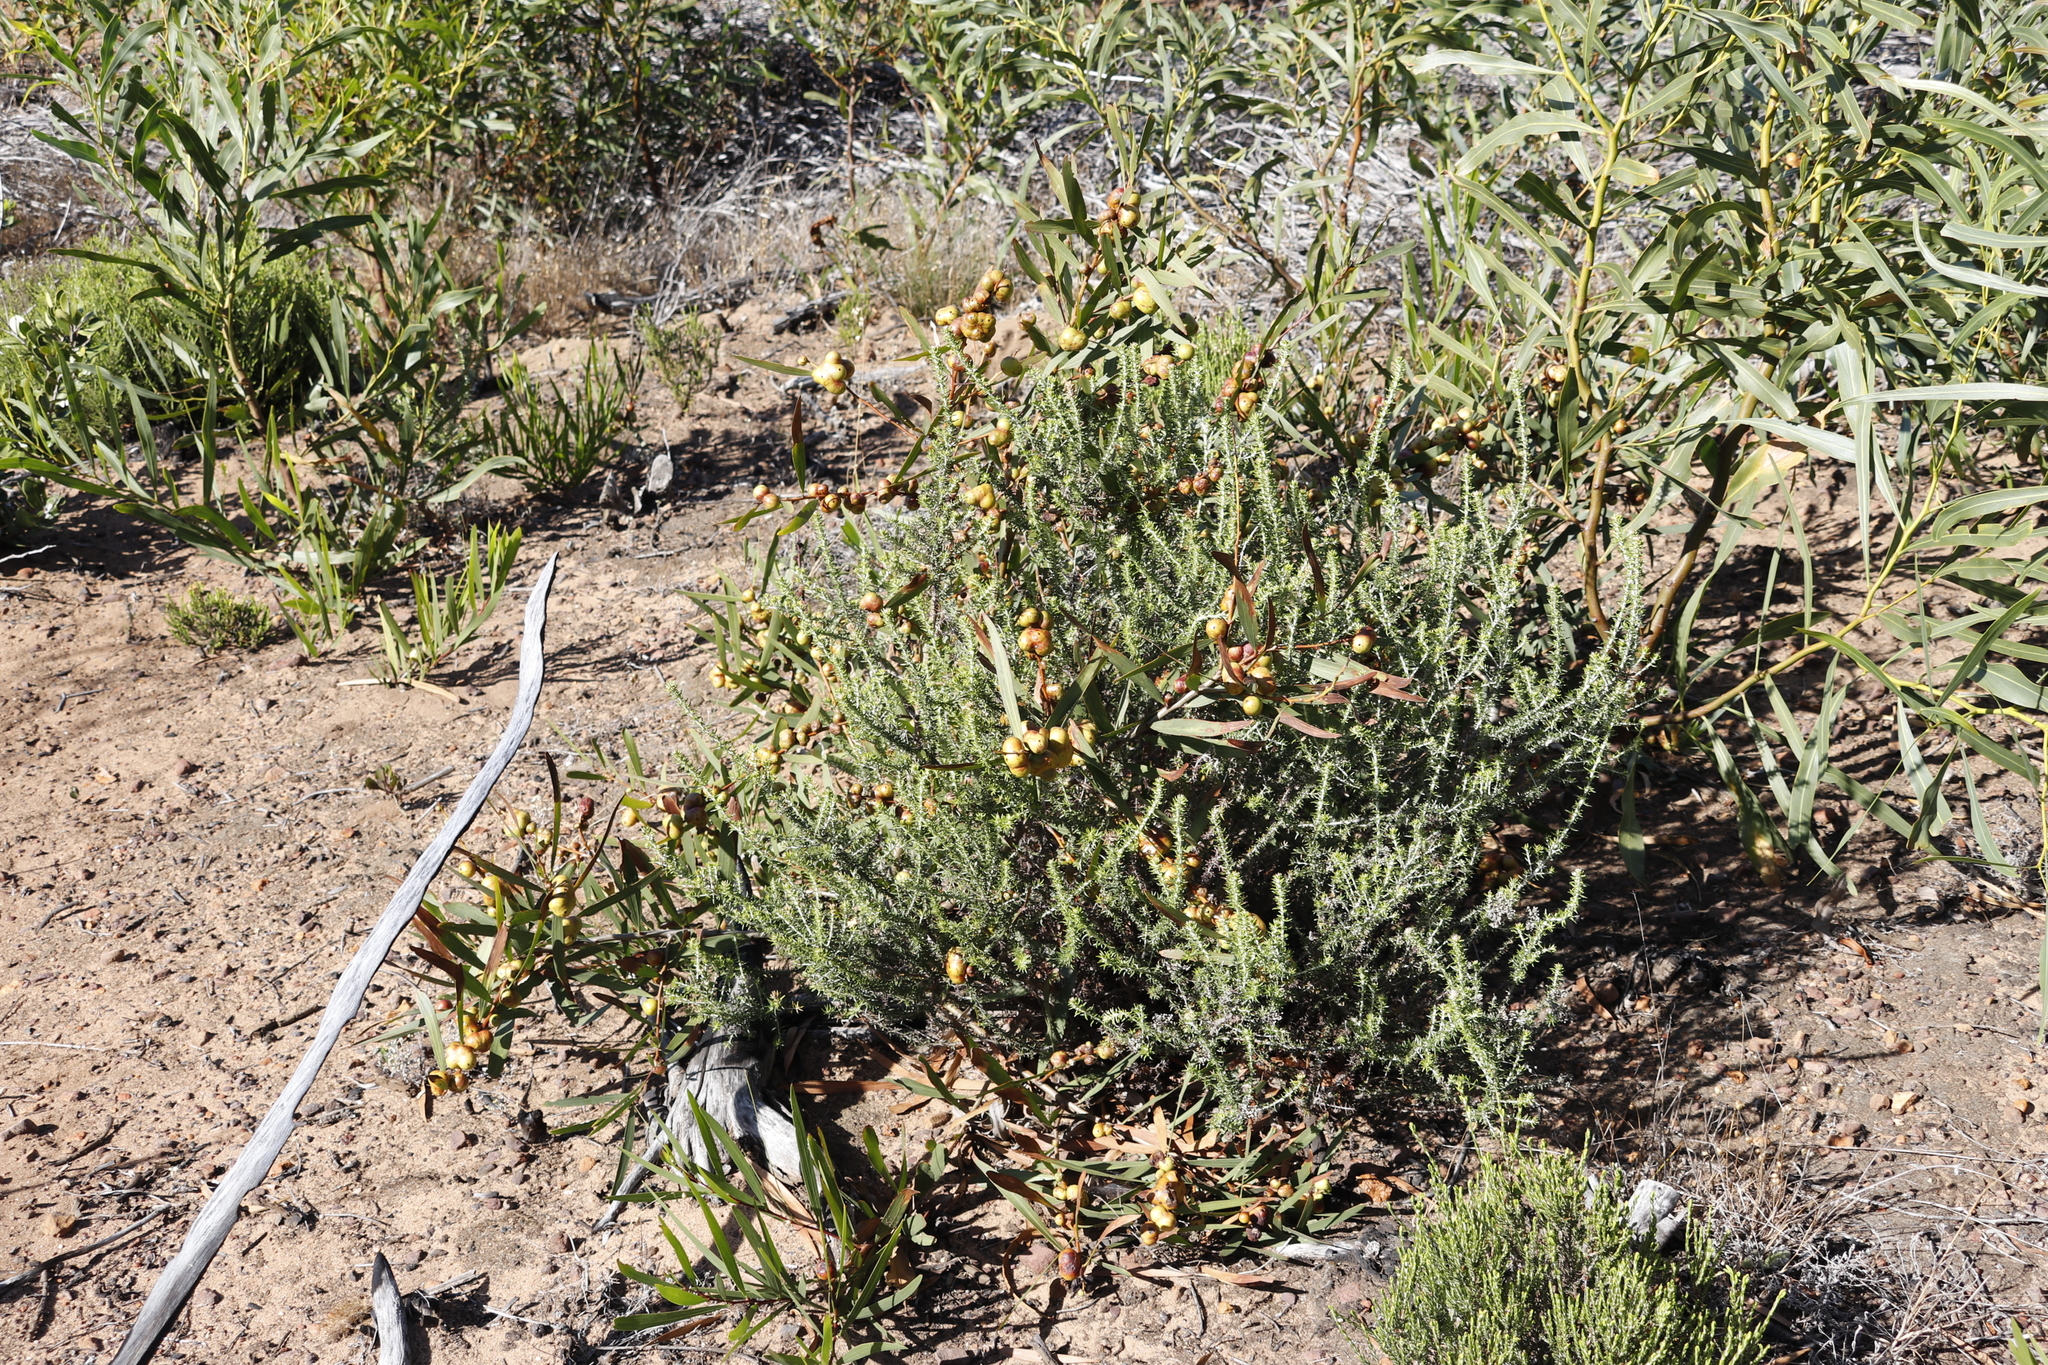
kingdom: Animalia
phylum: Arthropoda
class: Insecta
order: Hymenoptera
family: Pteromalidae
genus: Trichilogaster
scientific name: Trichilogaster acaciaelongifoliae
